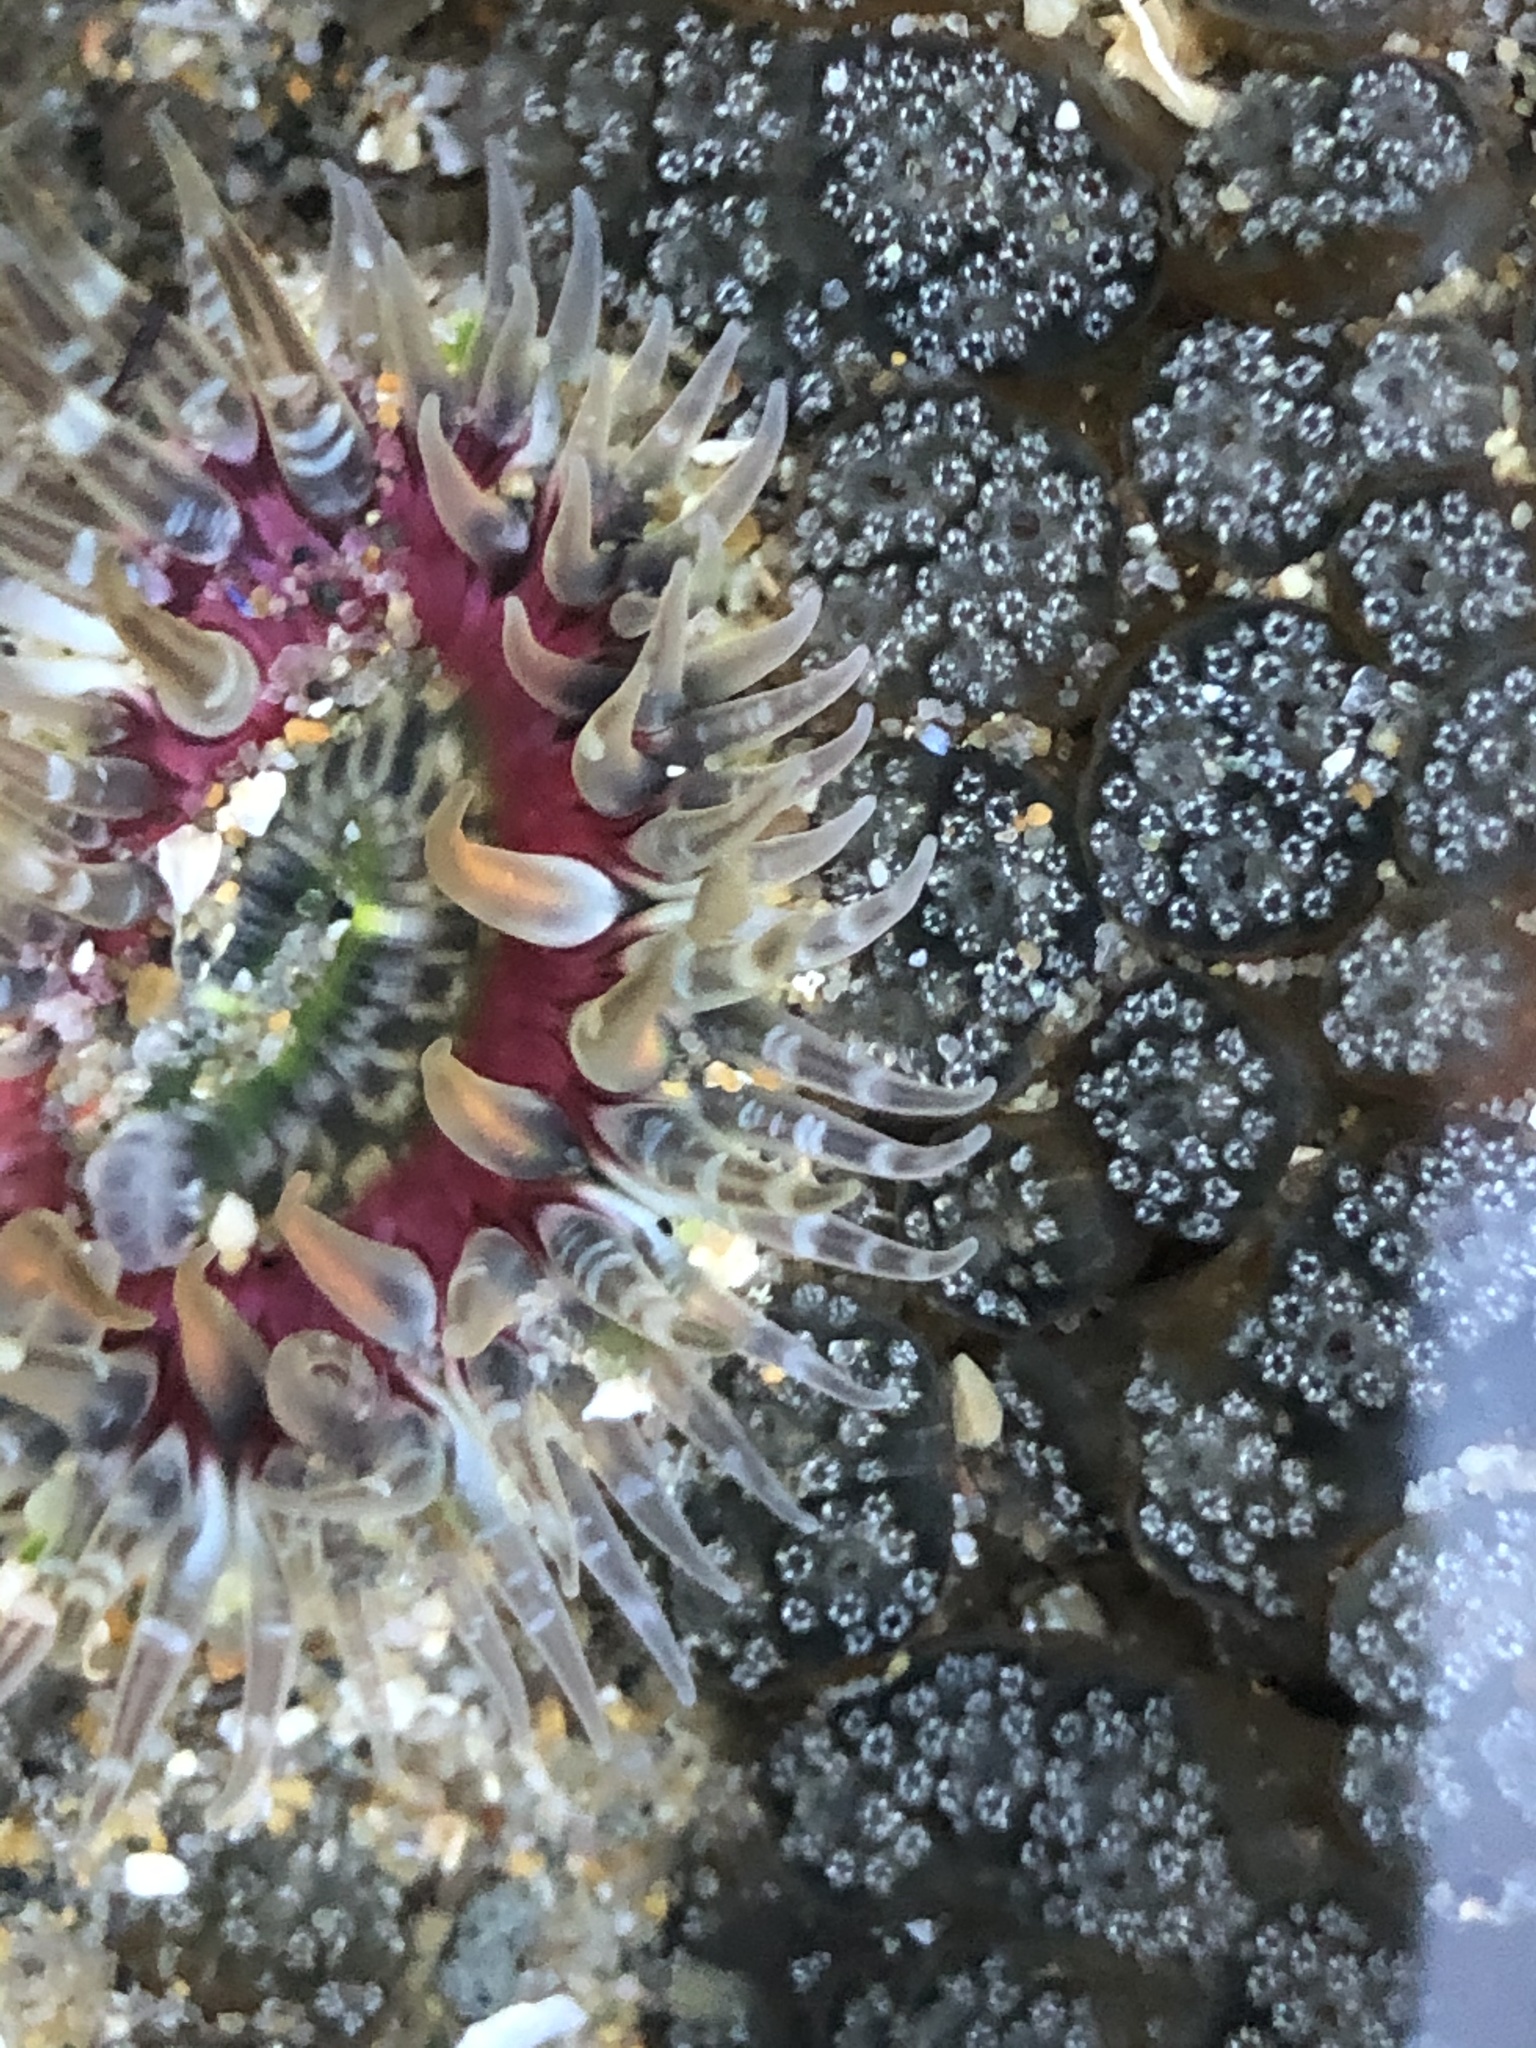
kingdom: Animalia
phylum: Cnidaria
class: Anthozoa
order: Actiniaria
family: Actiniidae
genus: Anthopleura
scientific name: Anthopleura artemisia
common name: Buried sea anemone
